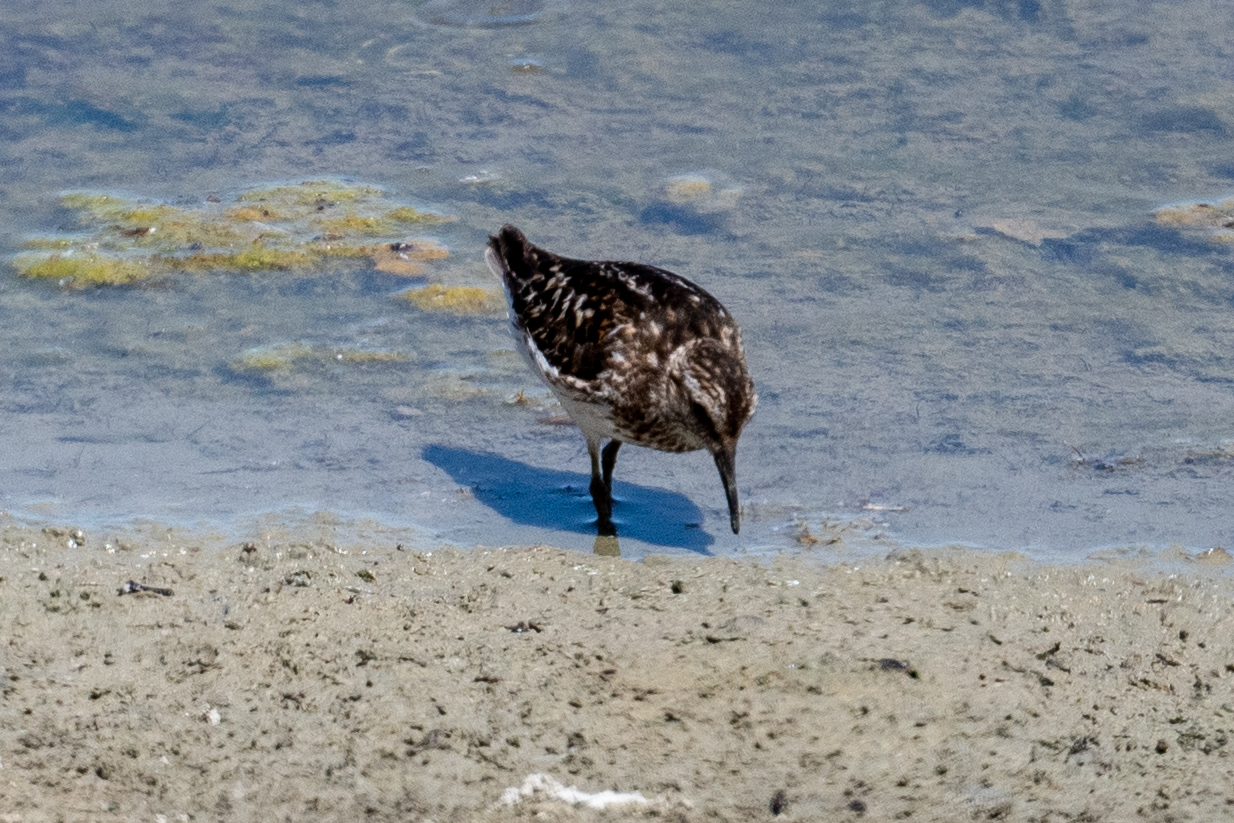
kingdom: Animalia
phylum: Chordata
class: Aves
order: Charadriiformes
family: Scolopacidae
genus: Calidris
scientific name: Calidris minutilla
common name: Least sandpiper
